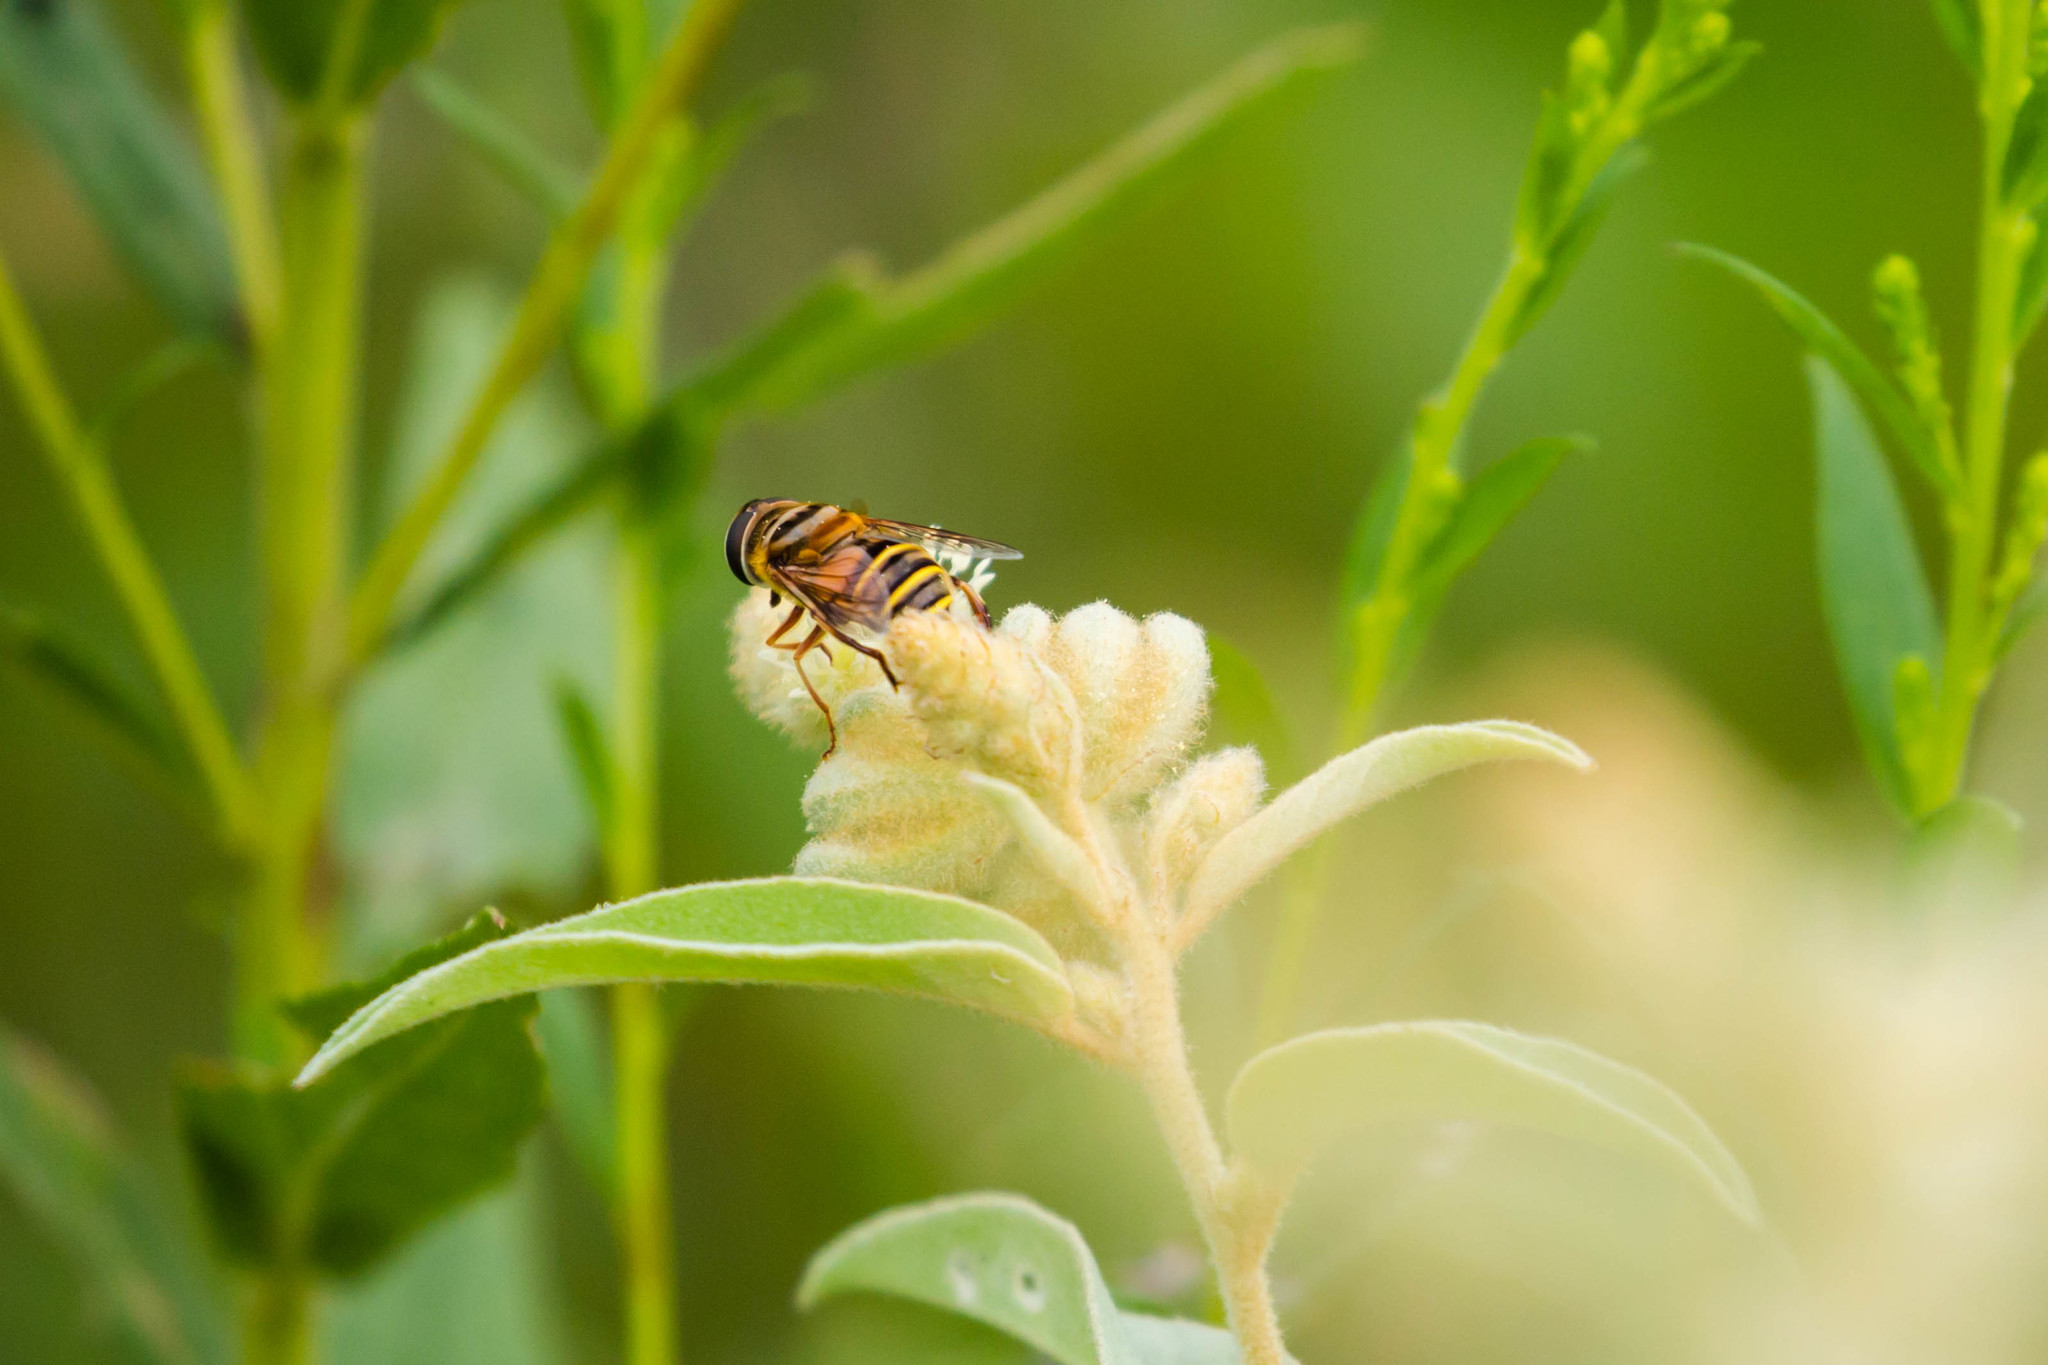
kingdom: Animalia
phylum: Arthropoda
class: Insecta
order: Diptera
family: Syrphidae
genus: Palpada
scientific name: Palpada vinetorum
